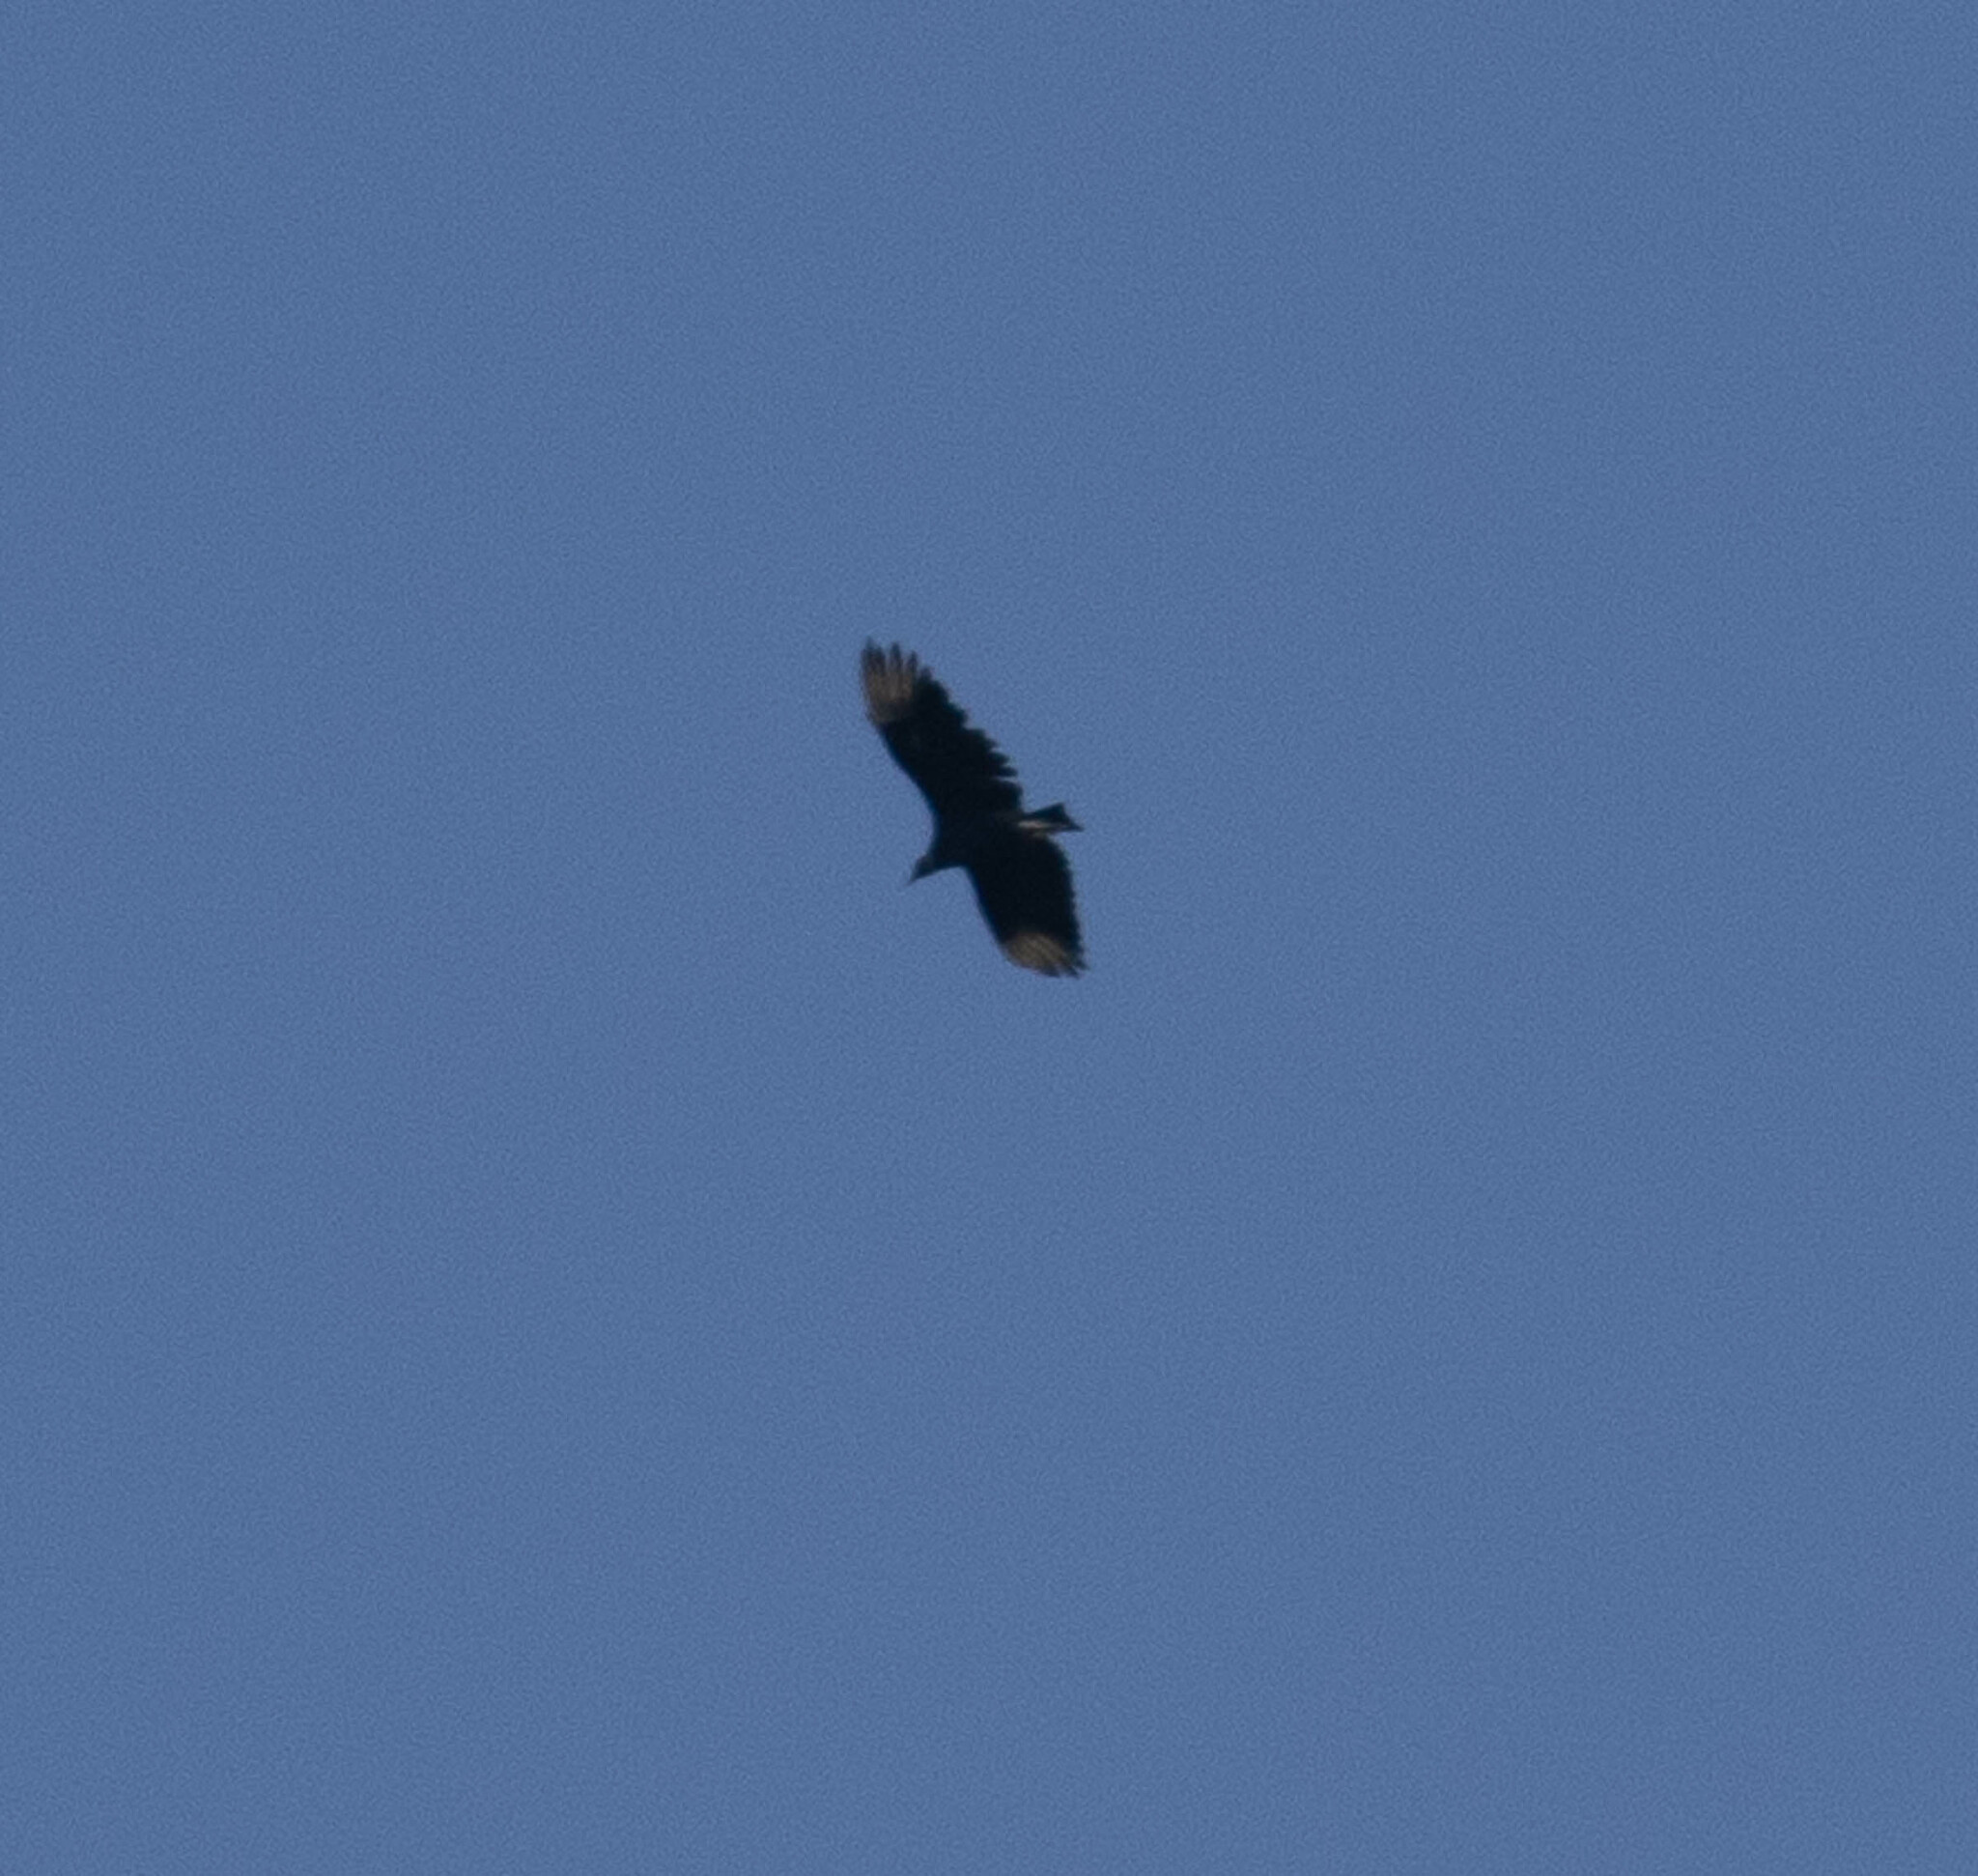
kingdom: Animalia
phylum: Chordata
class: Aves
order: Accipitriformes
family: Cathartidae
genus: Coragyps
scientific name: Coragyps atratus
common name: Black vulture
